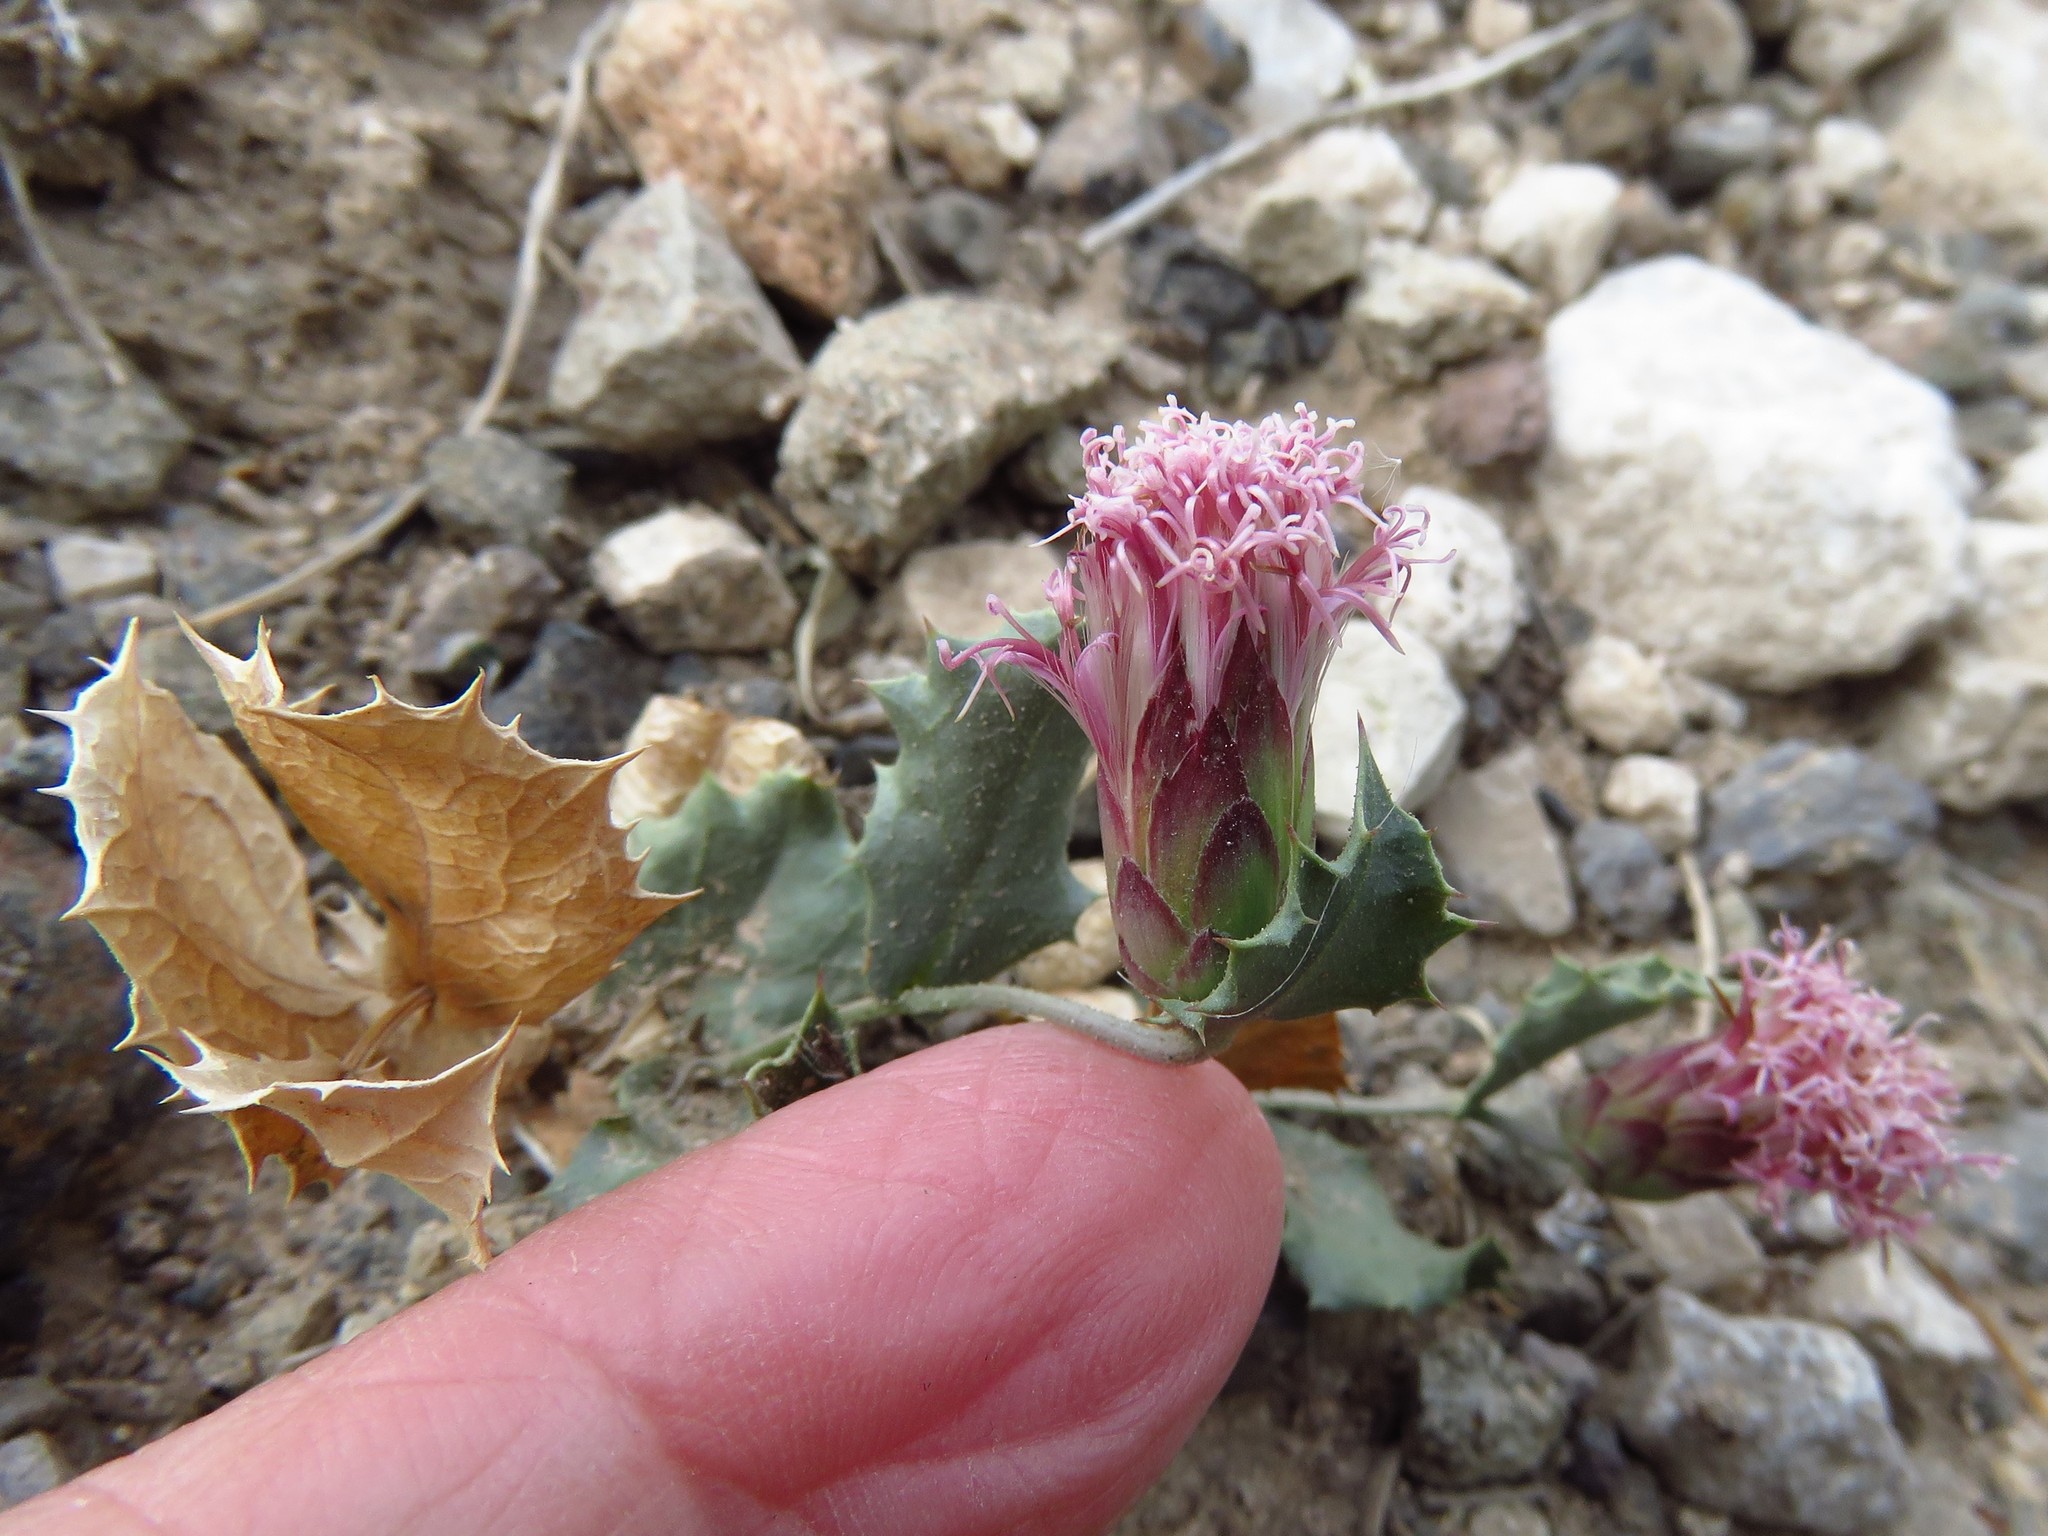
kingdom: Plantae
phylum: Tracheophyta
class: Magnoliopsida
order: Asterales
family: Asteraceae
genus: Acourtia
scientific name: Acourtia nana
